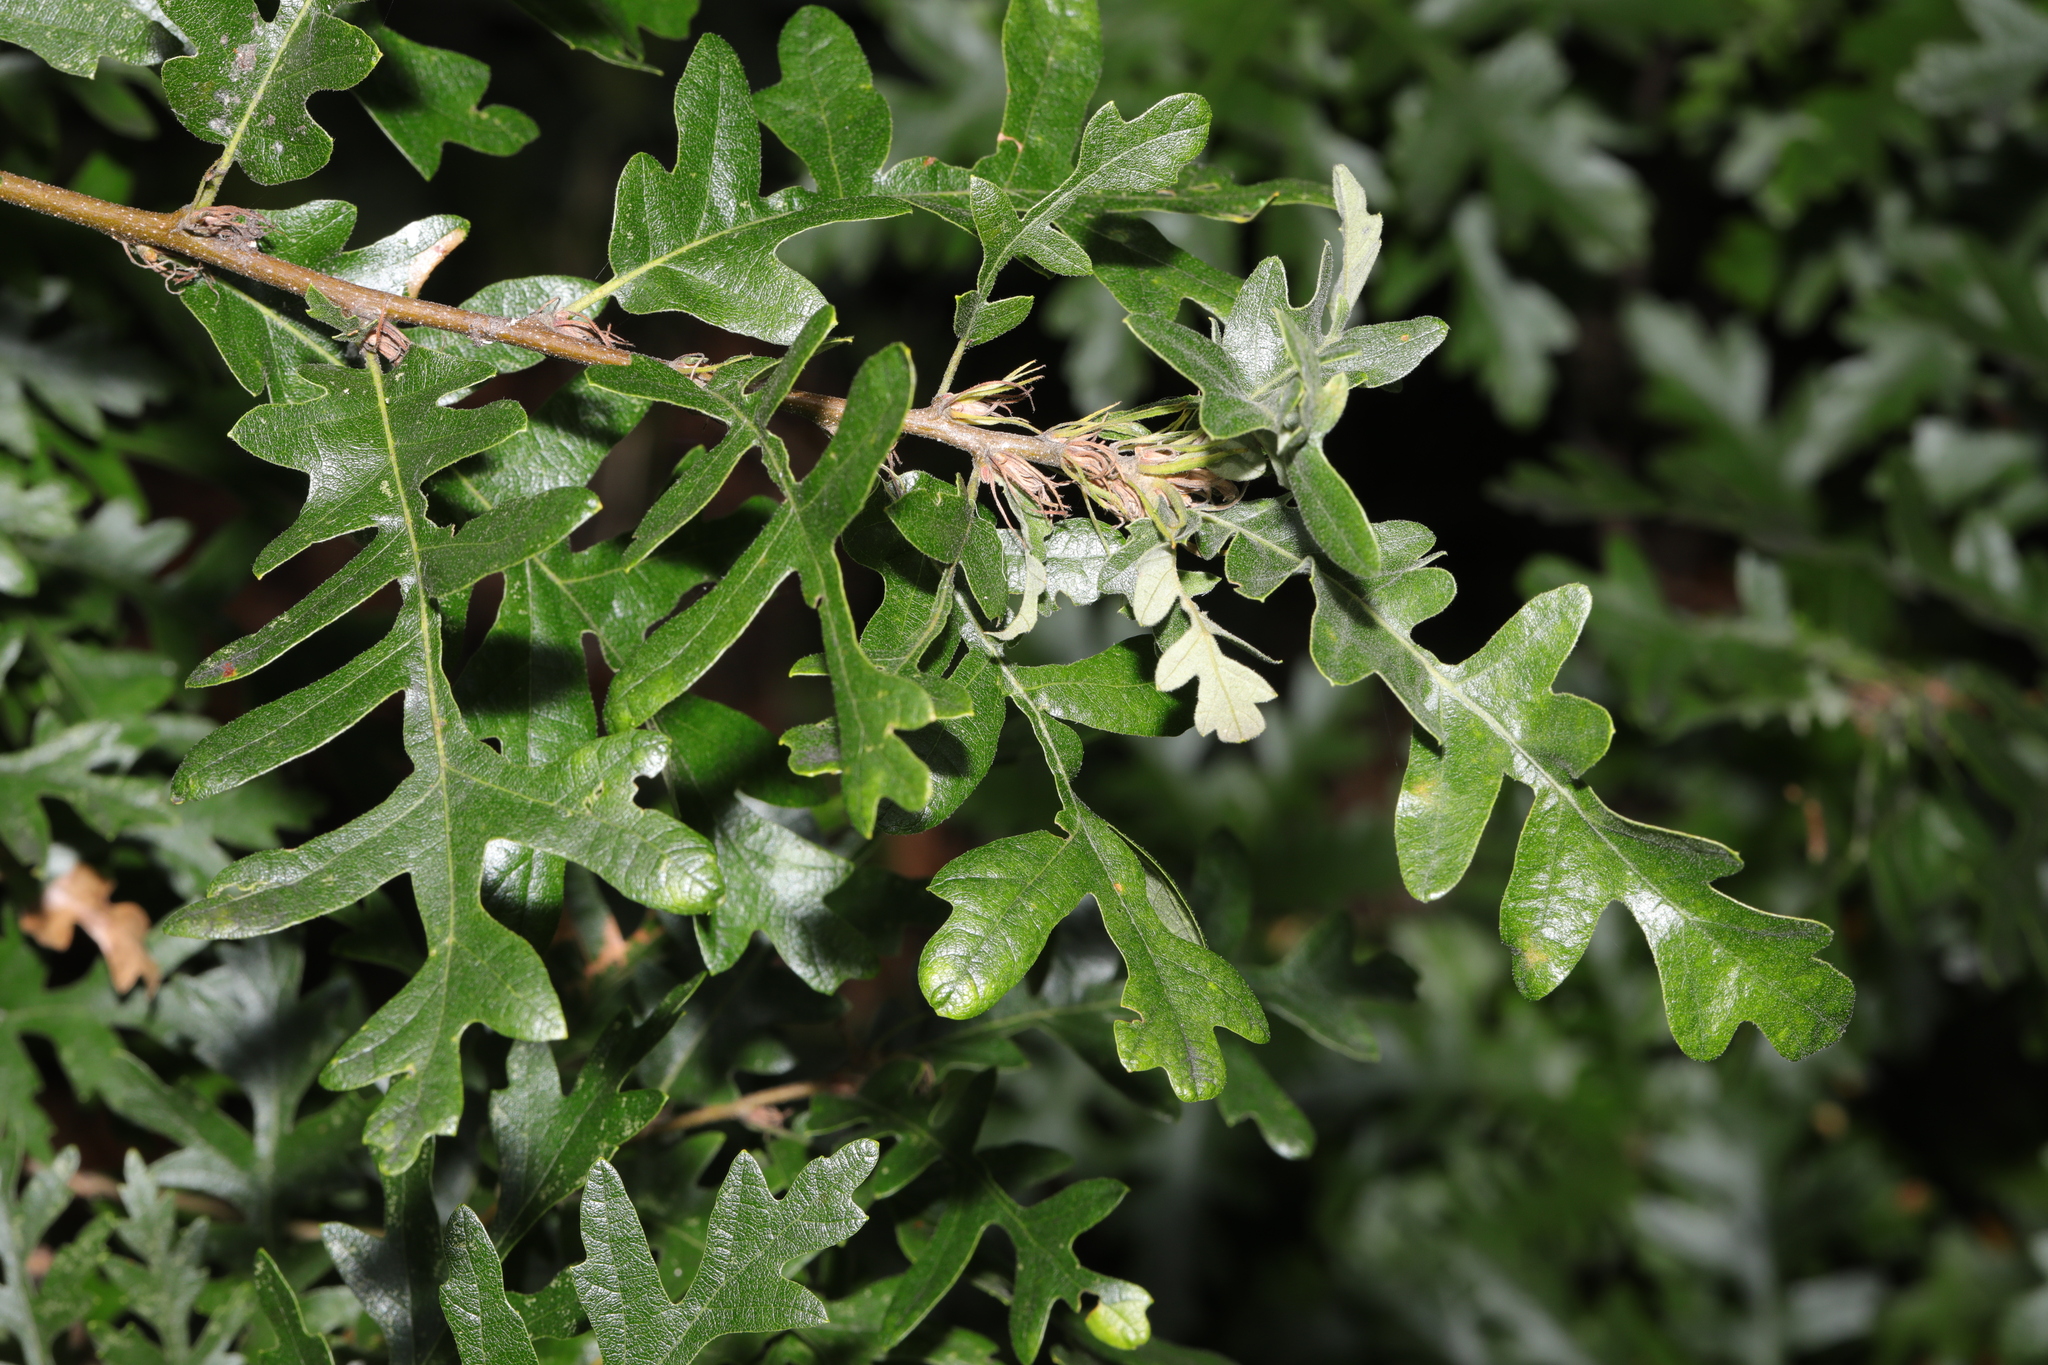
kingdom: Plantae
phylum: Tracheophyta
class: Magnoliopsida
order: Fagales
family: Fagaceae
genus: Quercus
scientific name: Quercus cerris
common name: Turkey oak
